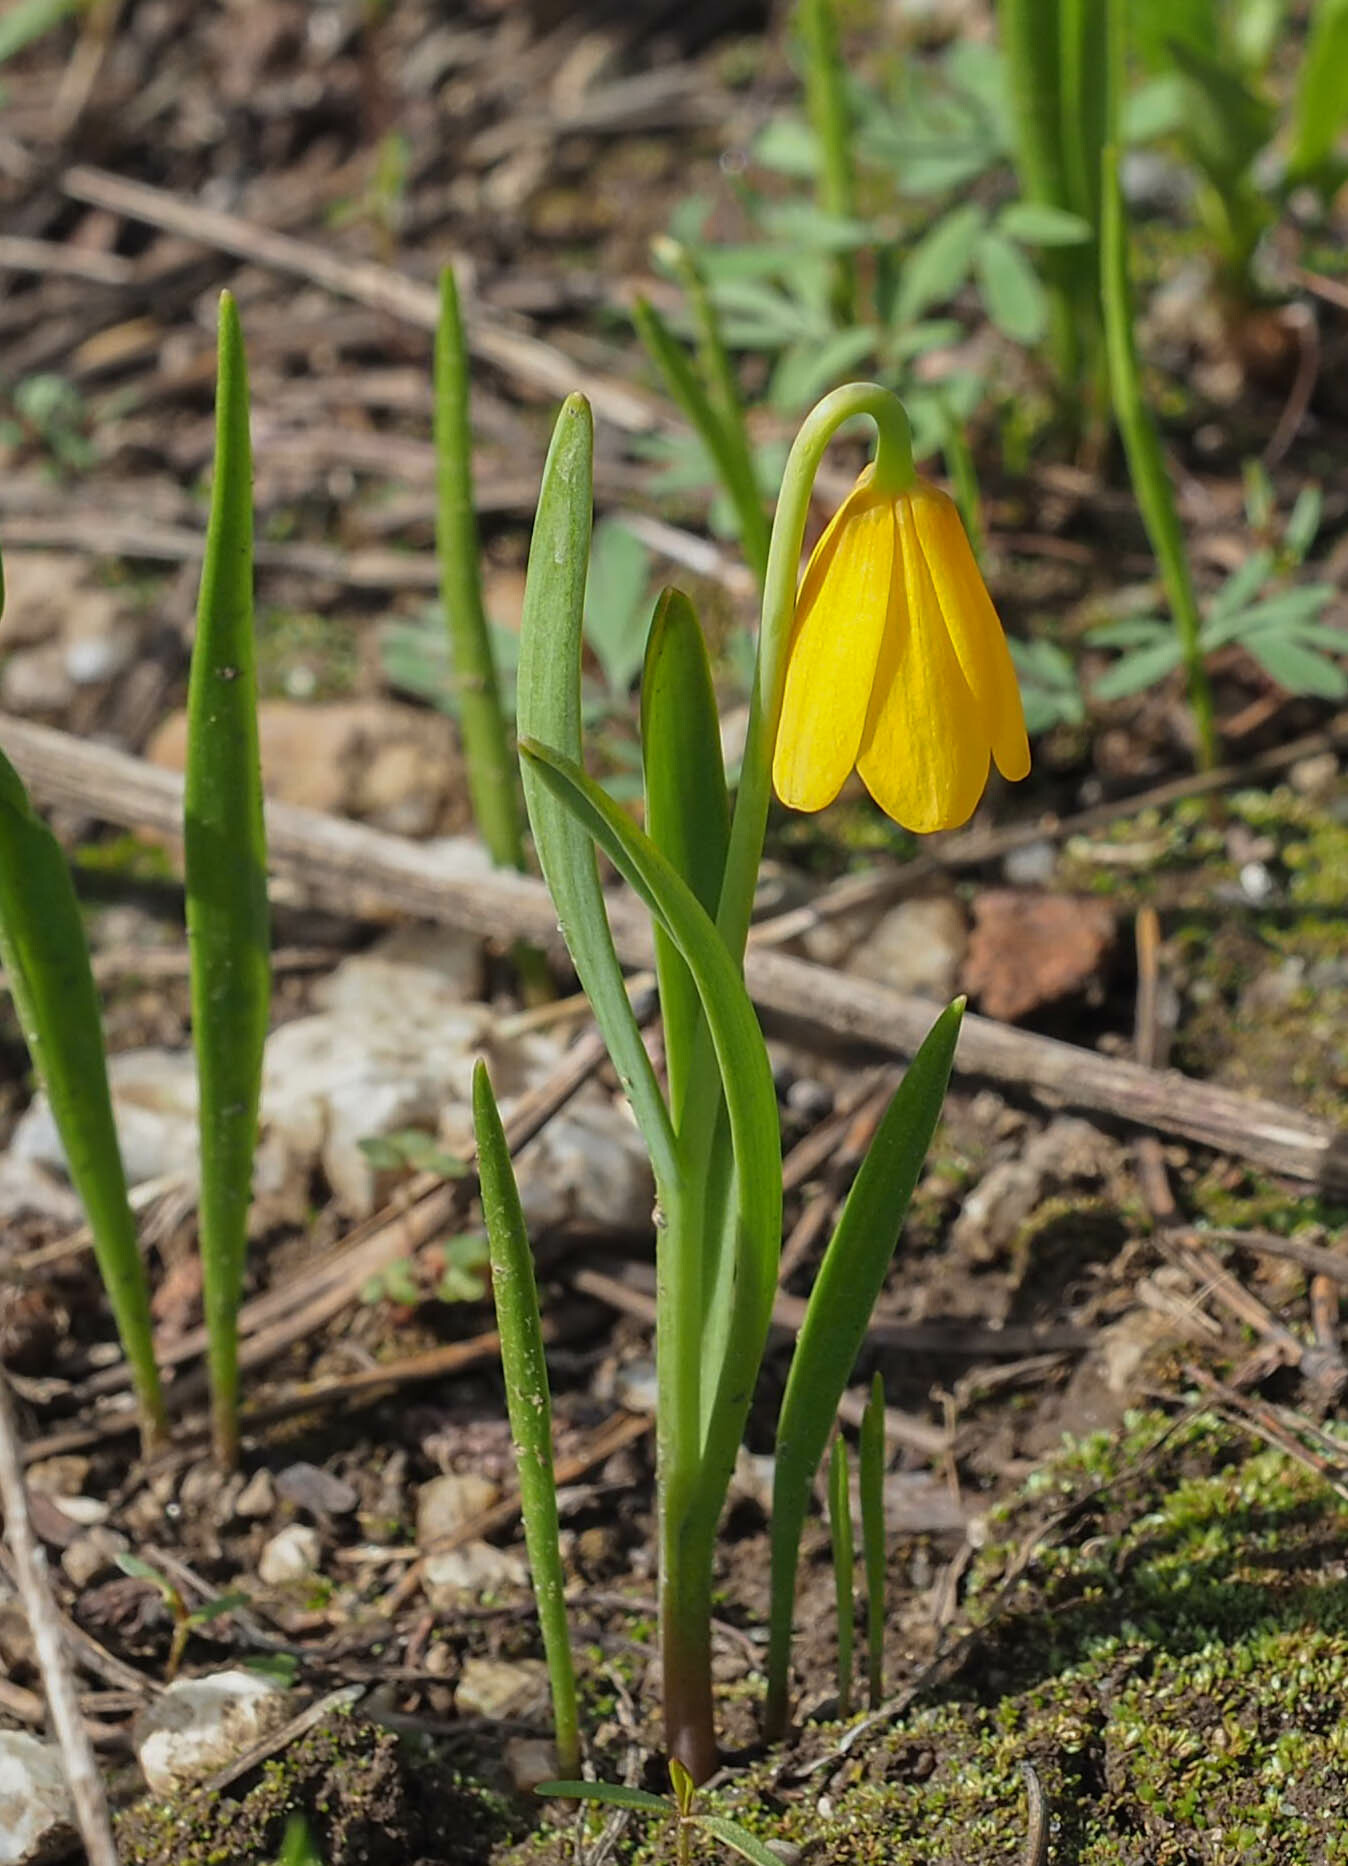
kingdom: Plantae
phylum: Tracheophyta
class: Liliopsida
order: Liliales
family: Liliaceae
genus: Fritillaria
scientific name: Fritillaria pudica
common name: Yellow fritillary
